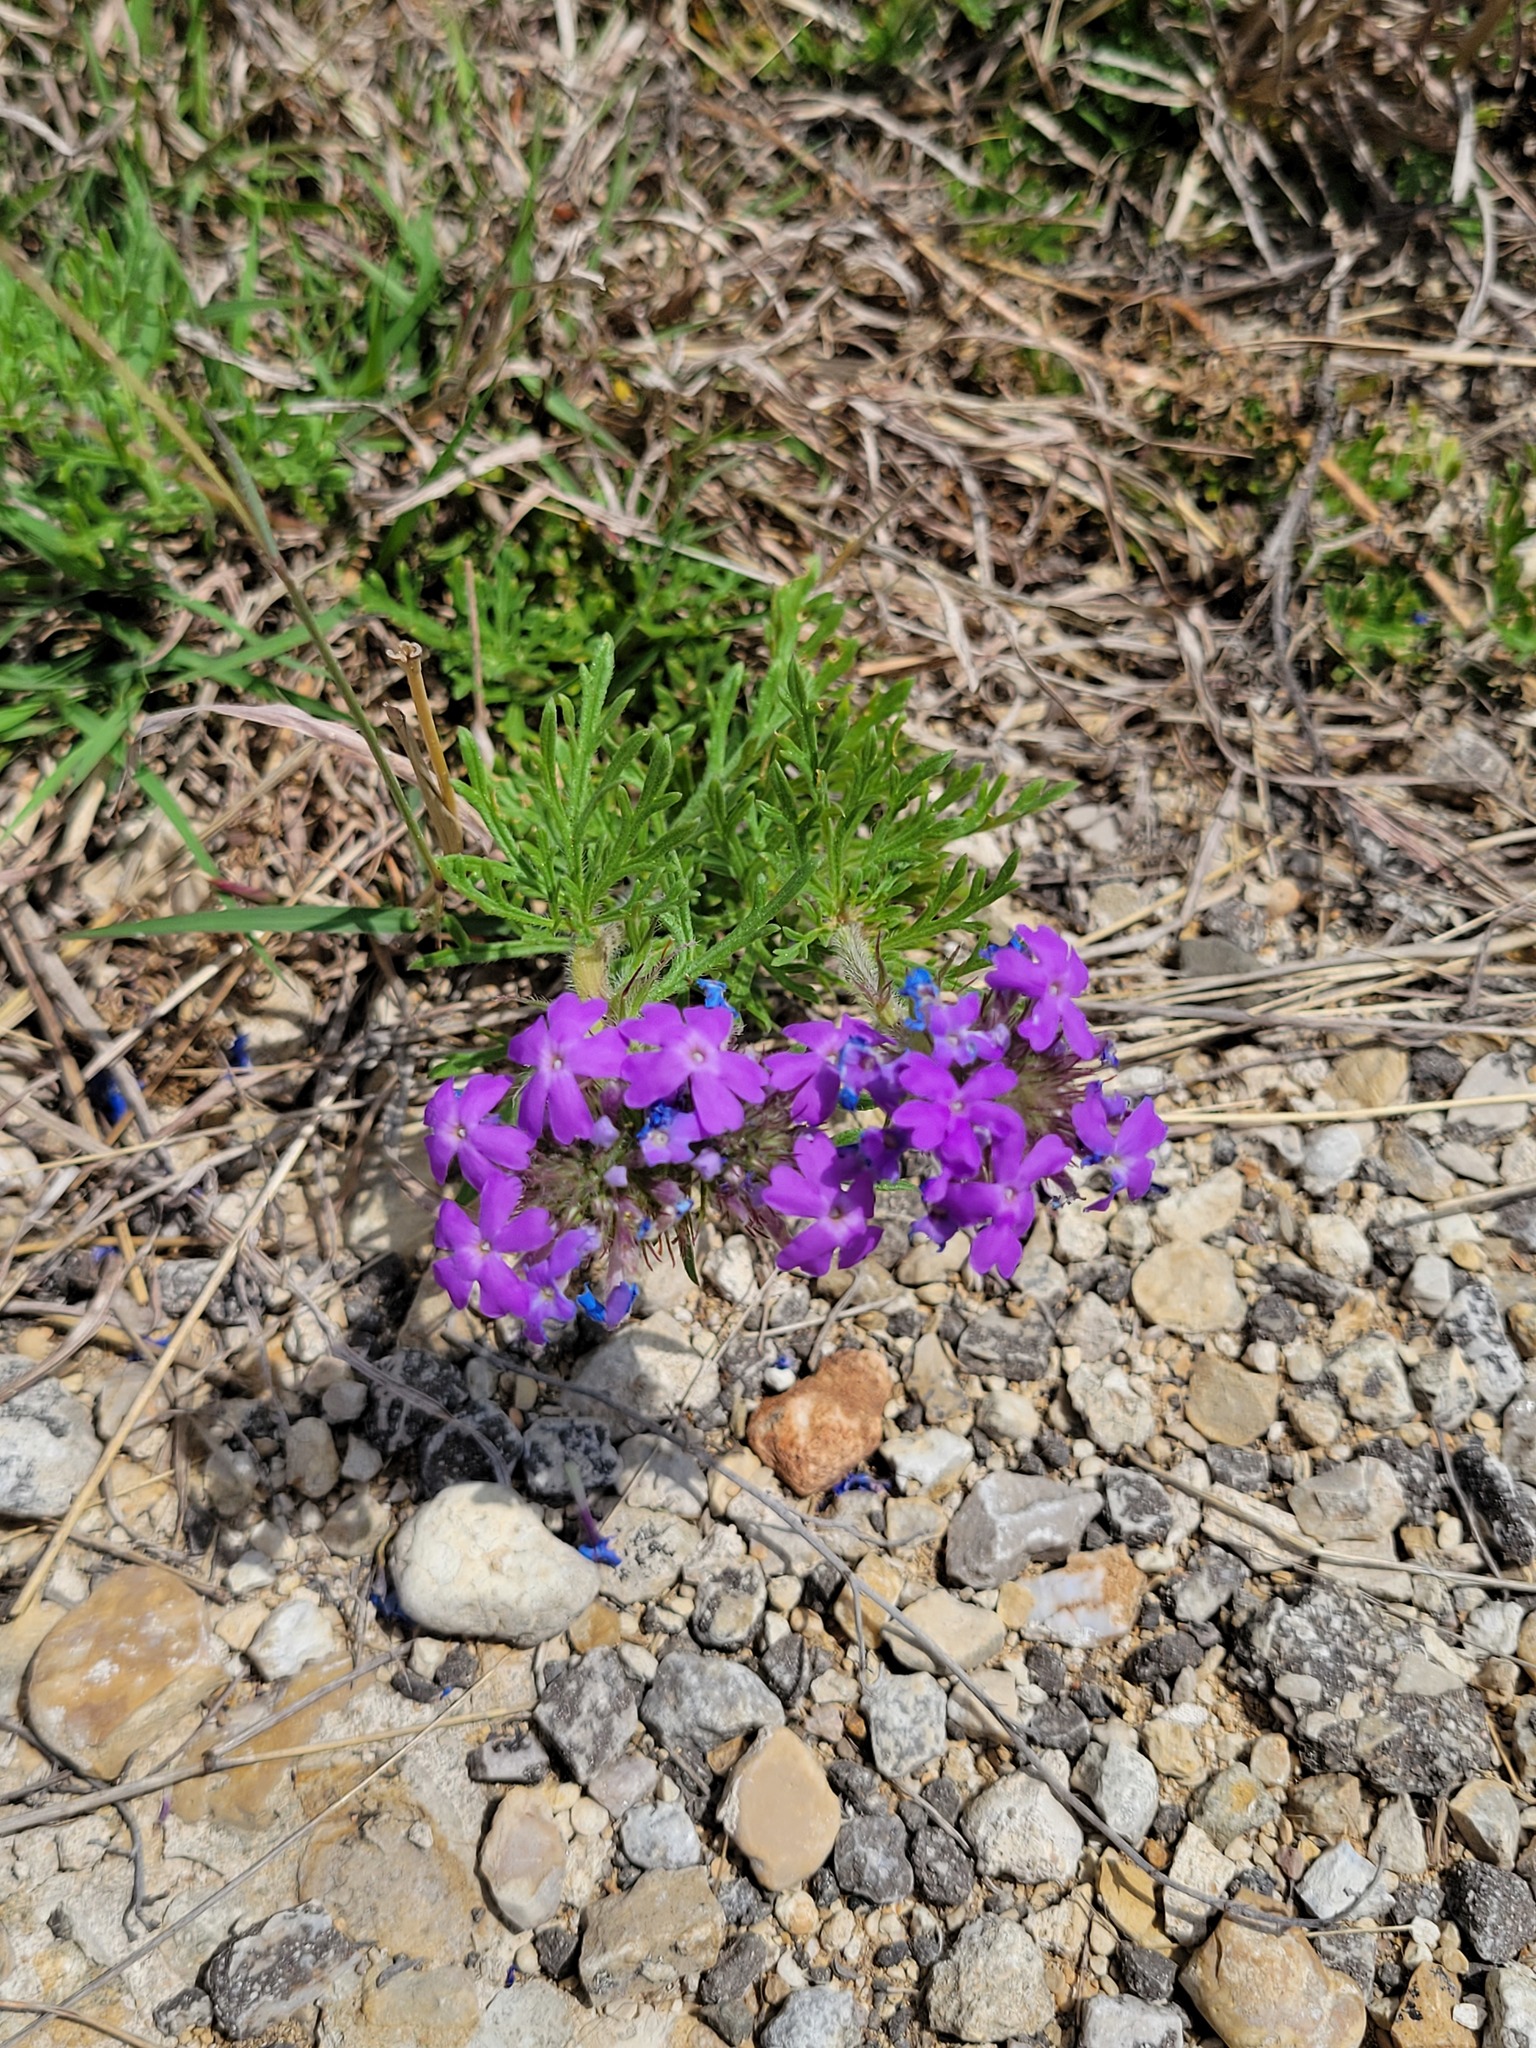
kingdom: Plantae
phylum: Tracheophyta
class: Magnoliopsida
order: Lamiales
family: Verbenaceae
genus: Verbena
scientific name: Verbena bipinnatifida
